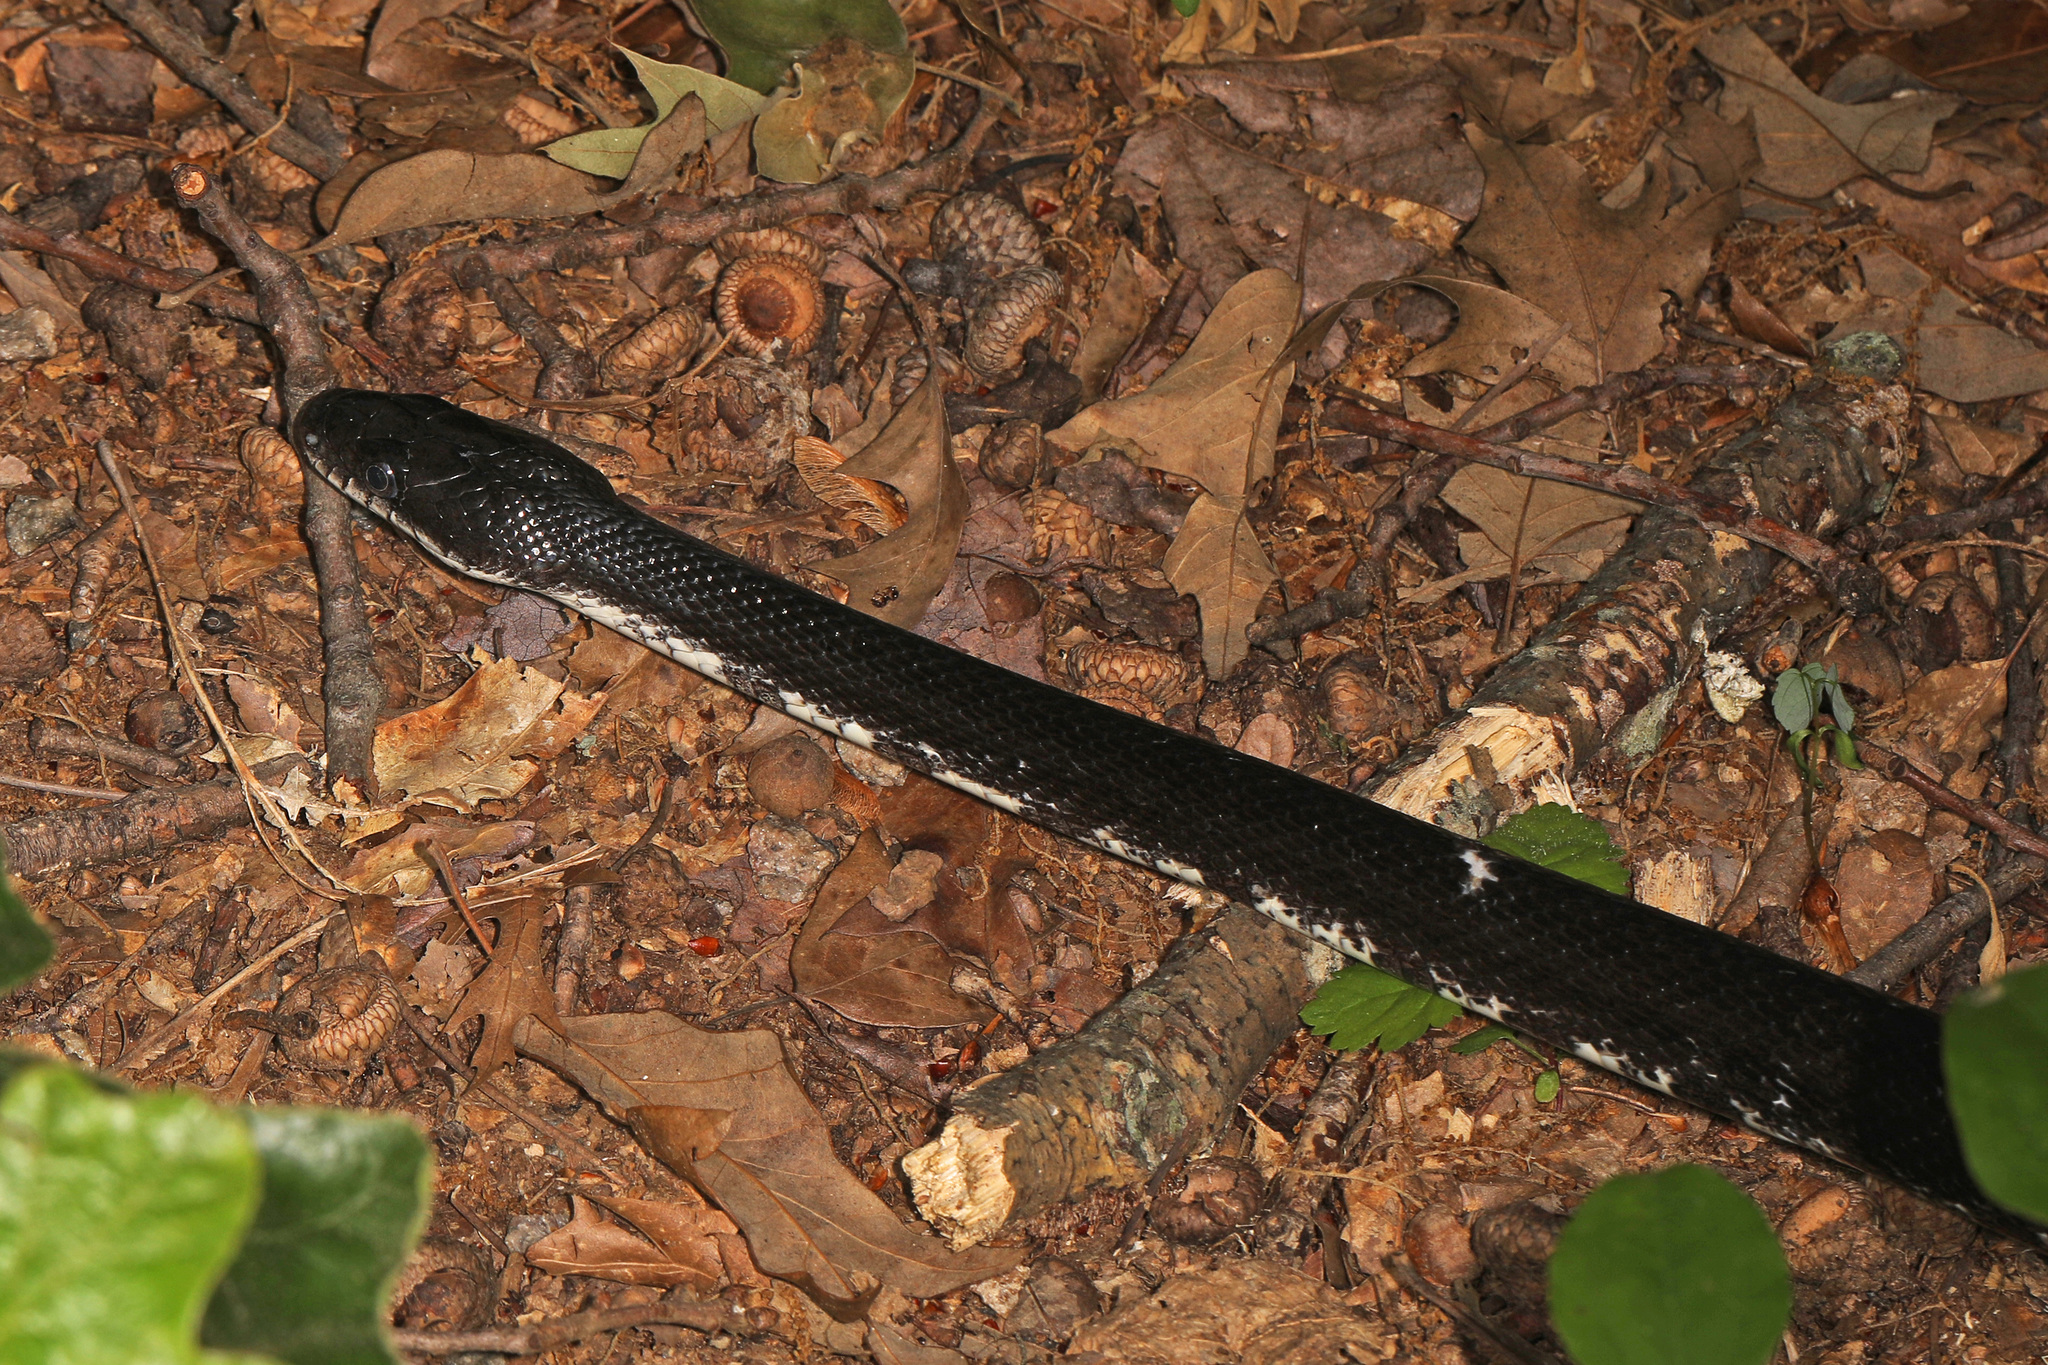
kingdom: Animalia
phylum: Chordata
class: Squamata
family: Colubridae
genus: Pantherophis
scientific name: Pantherophis alleghaniensis
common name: Eastern rat snake
